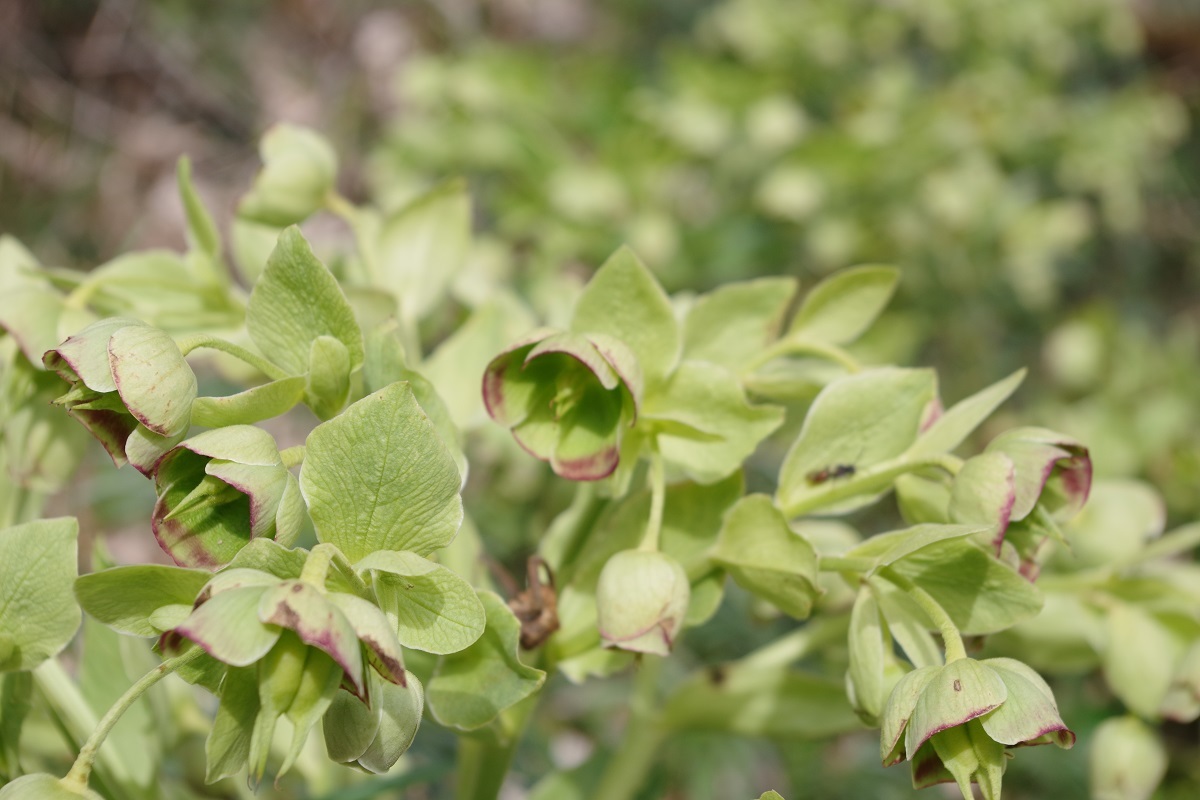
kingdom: Plantae
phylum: Tracheophyta
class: Magnoliopsida
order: Ranunculales
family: Ranunculaceae
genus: Helleborus
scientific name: Helleborus foetidus
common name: Stinking hellebore
